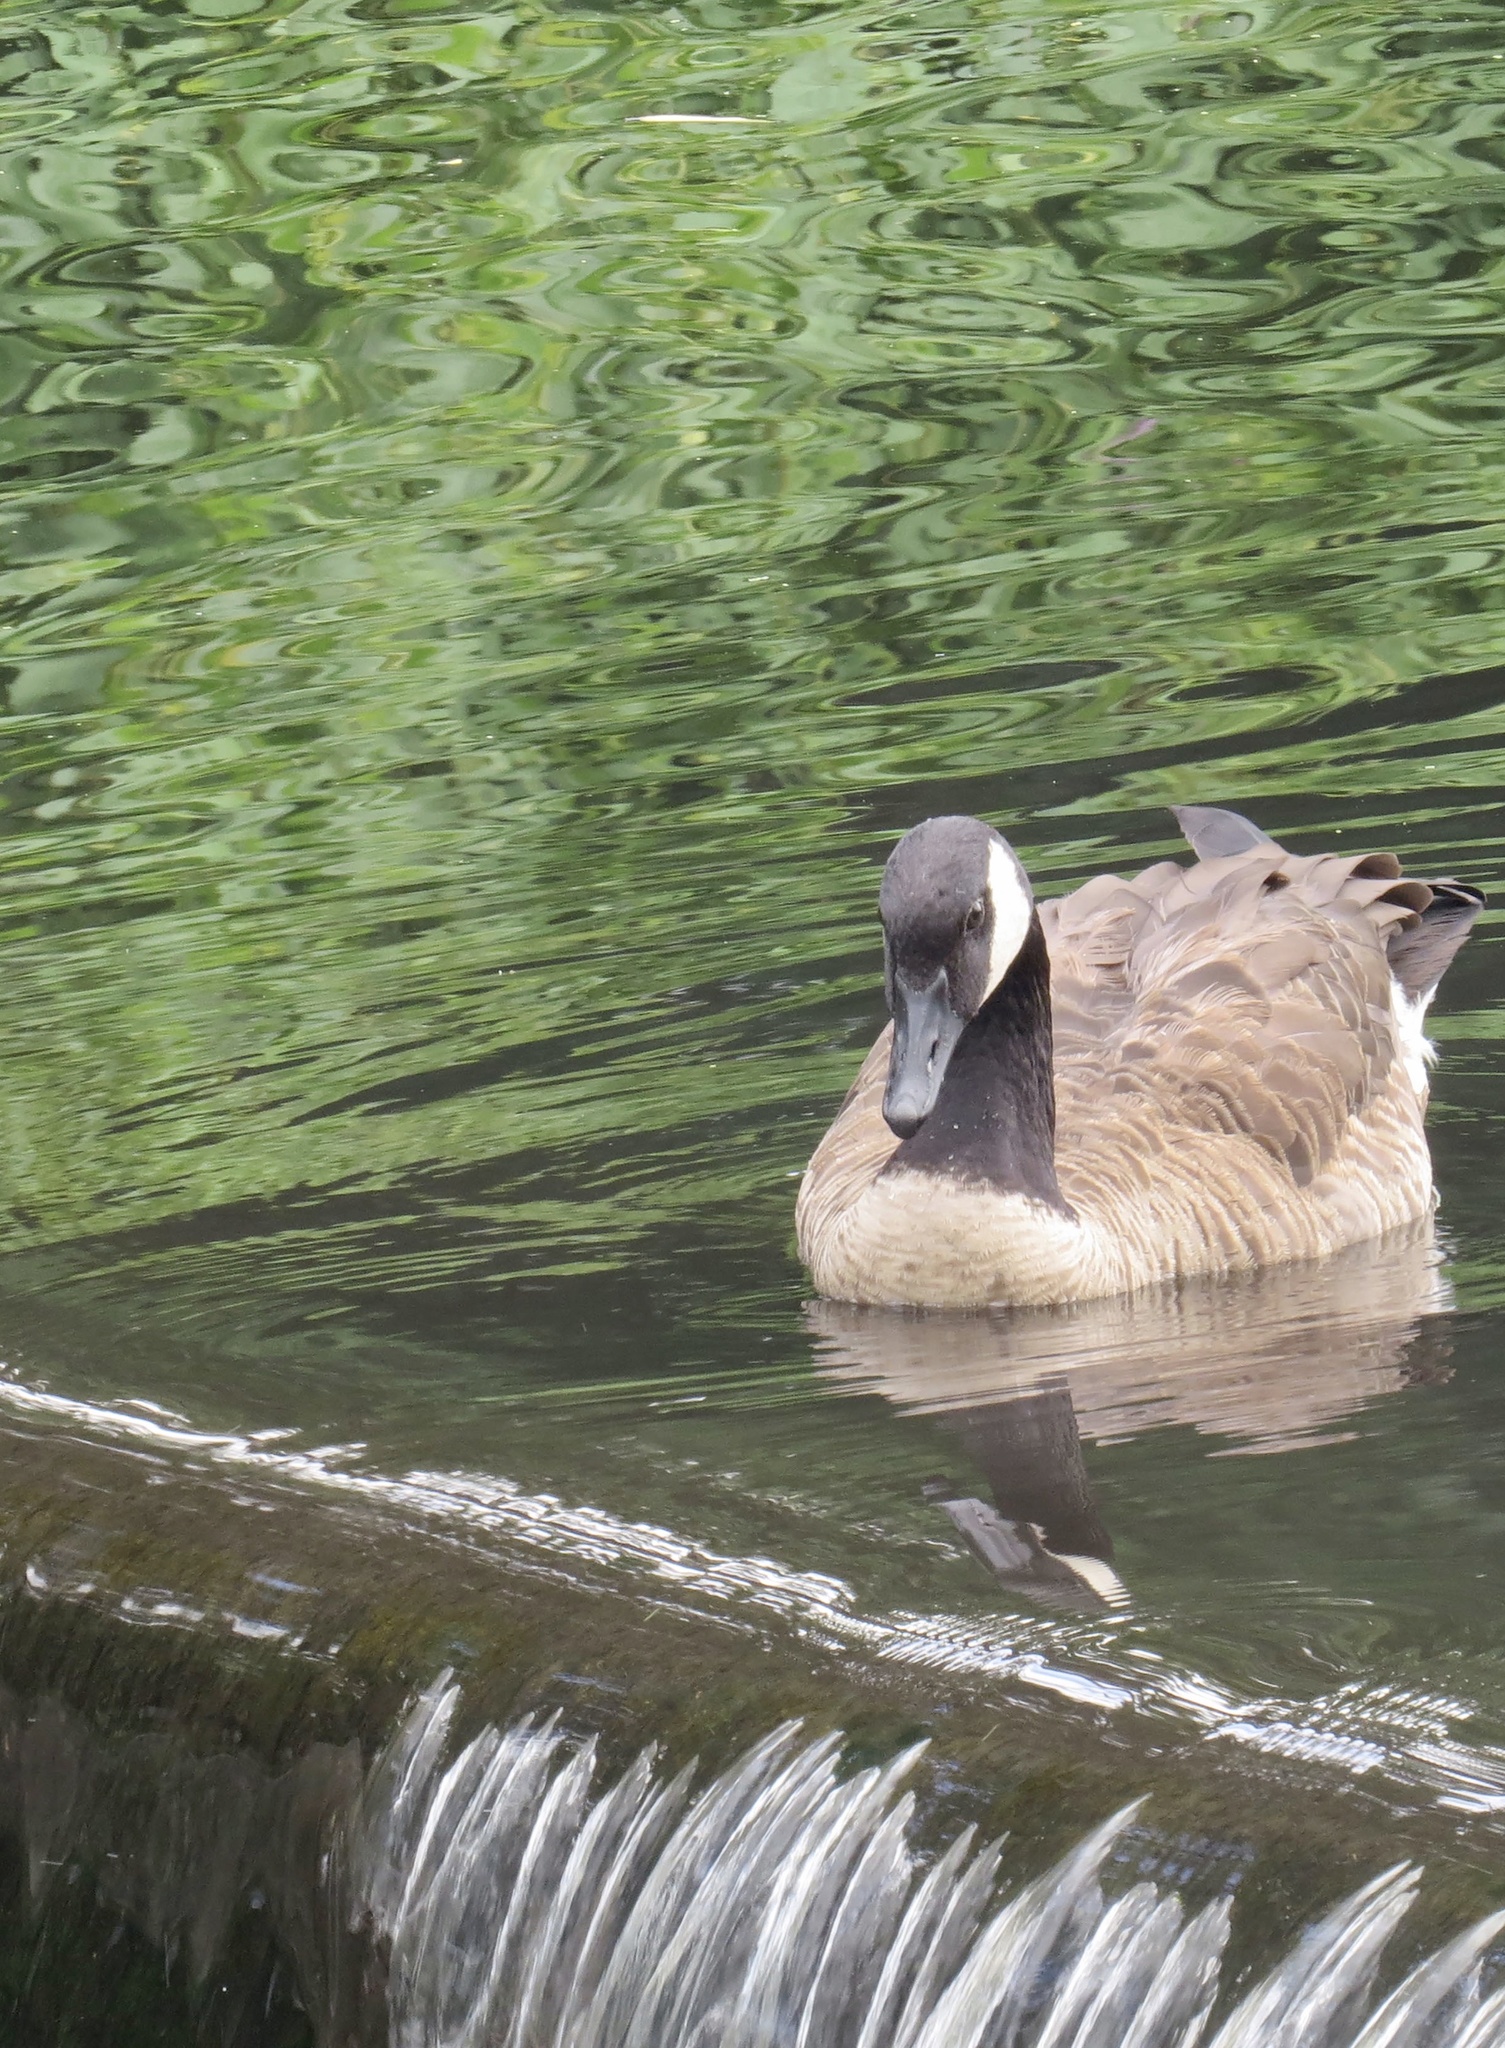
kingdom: Animalia
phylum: Chordata
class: Aves
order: Anseriformes
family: Anatidae
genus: Branta
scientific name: Branta canadensis
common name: Canada goose
